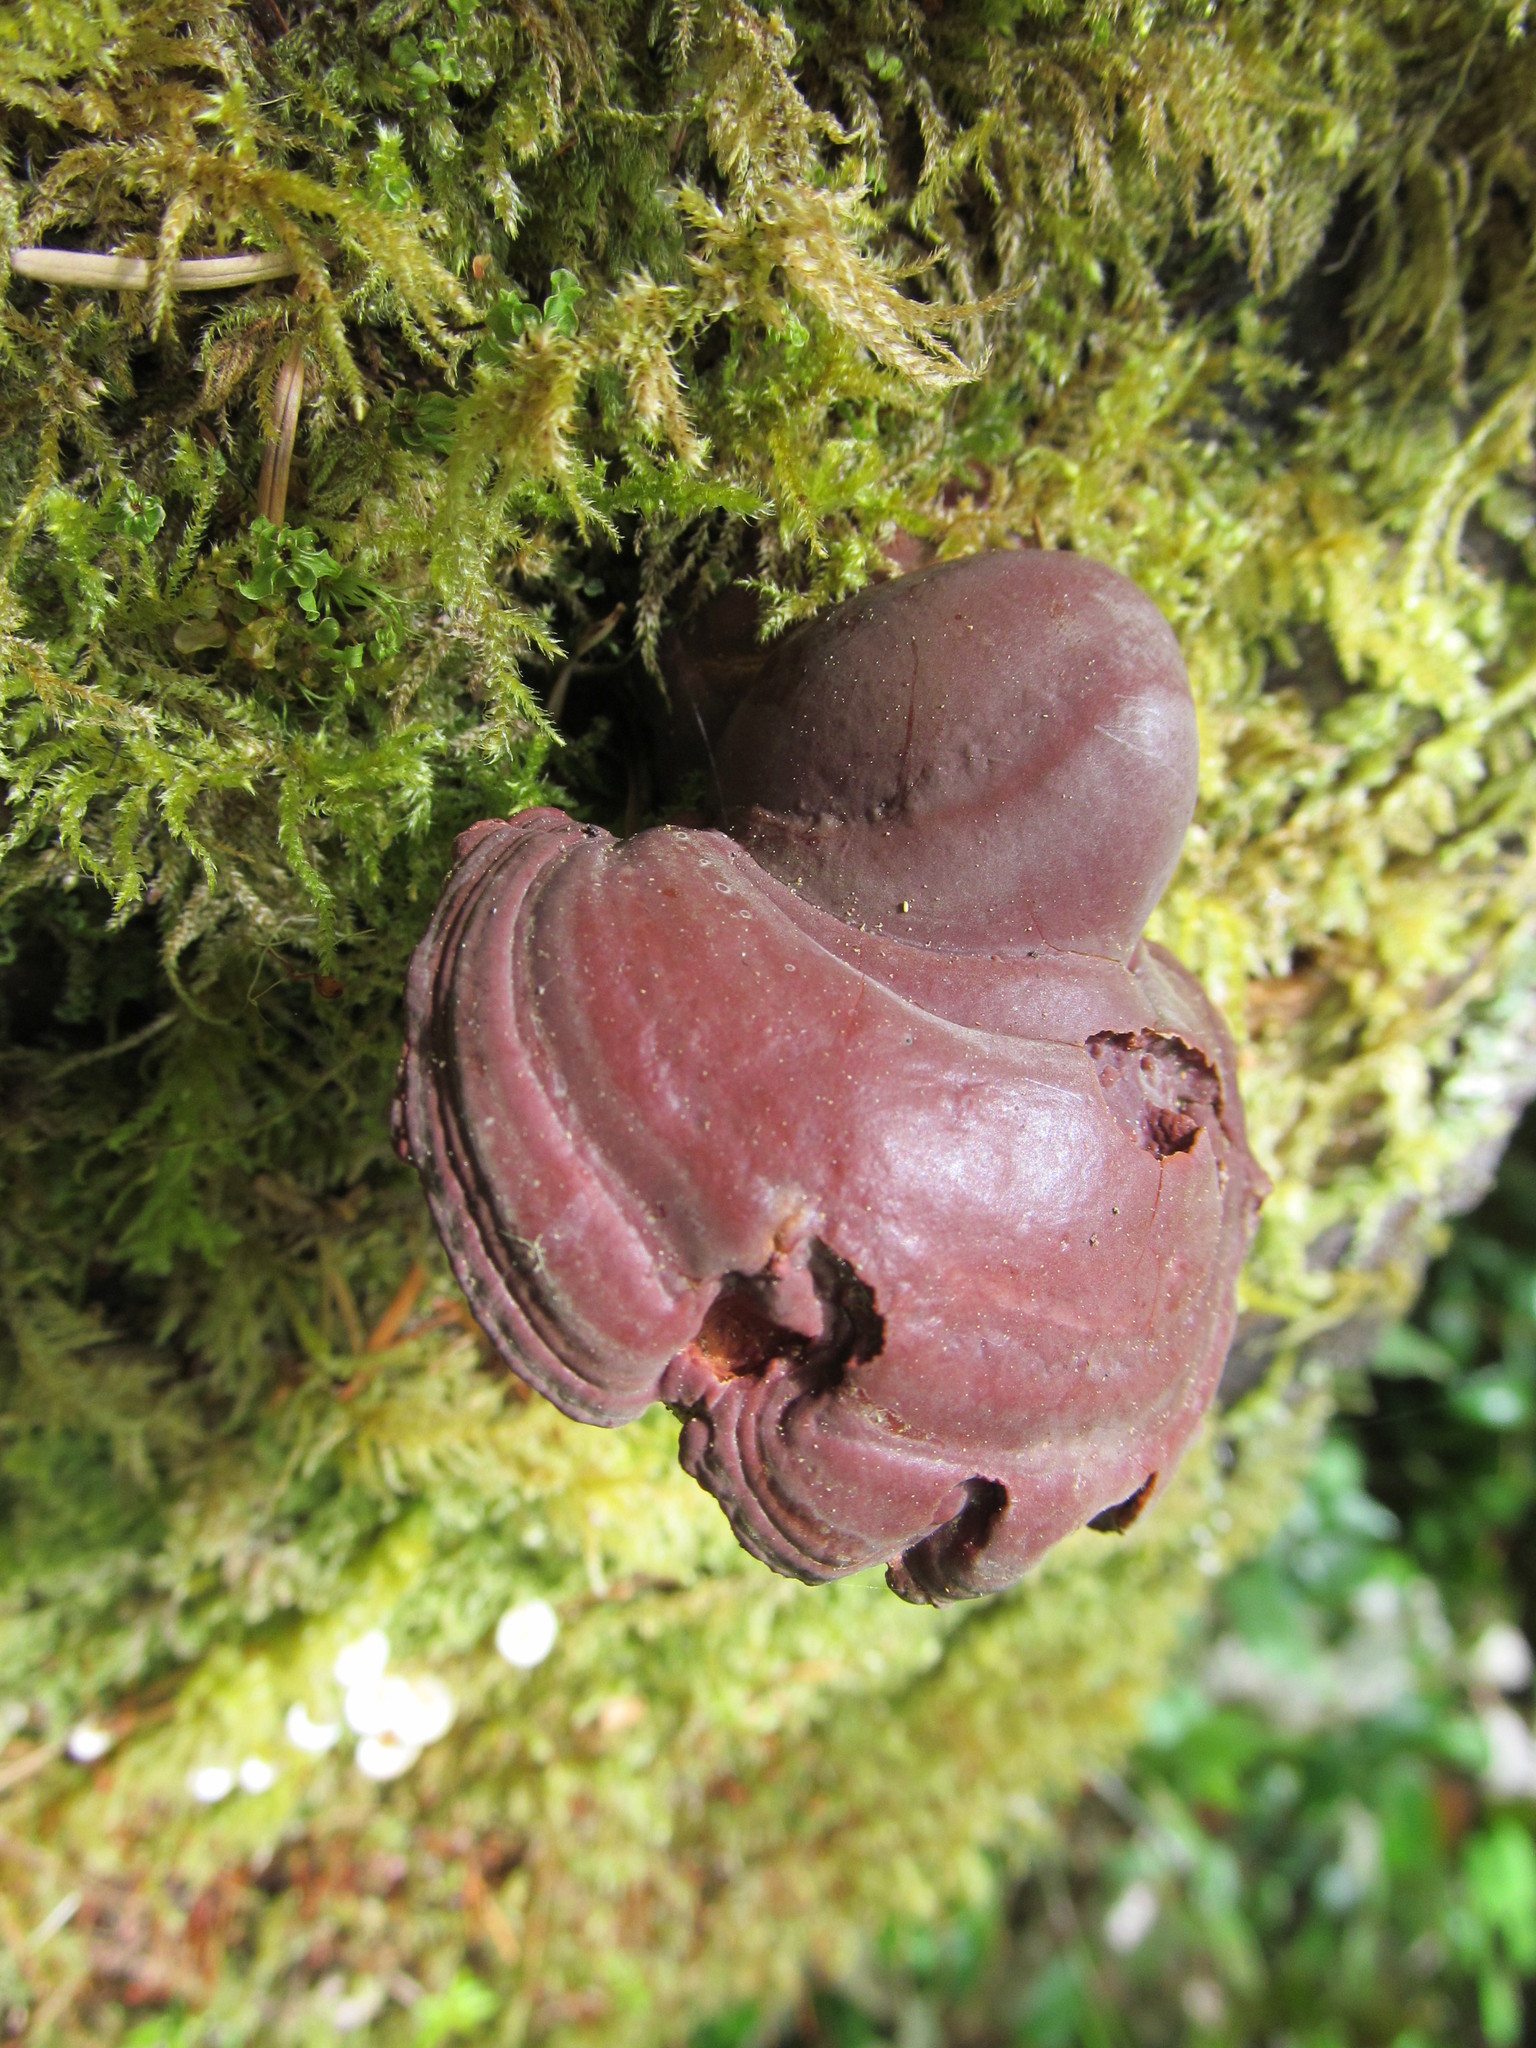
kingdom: Fungi
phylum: Basidiomycota
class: Agaricomycetes
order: Polyporales
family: Polyporaceae
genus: Ganoderma
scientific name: Ganoderma oregonense
